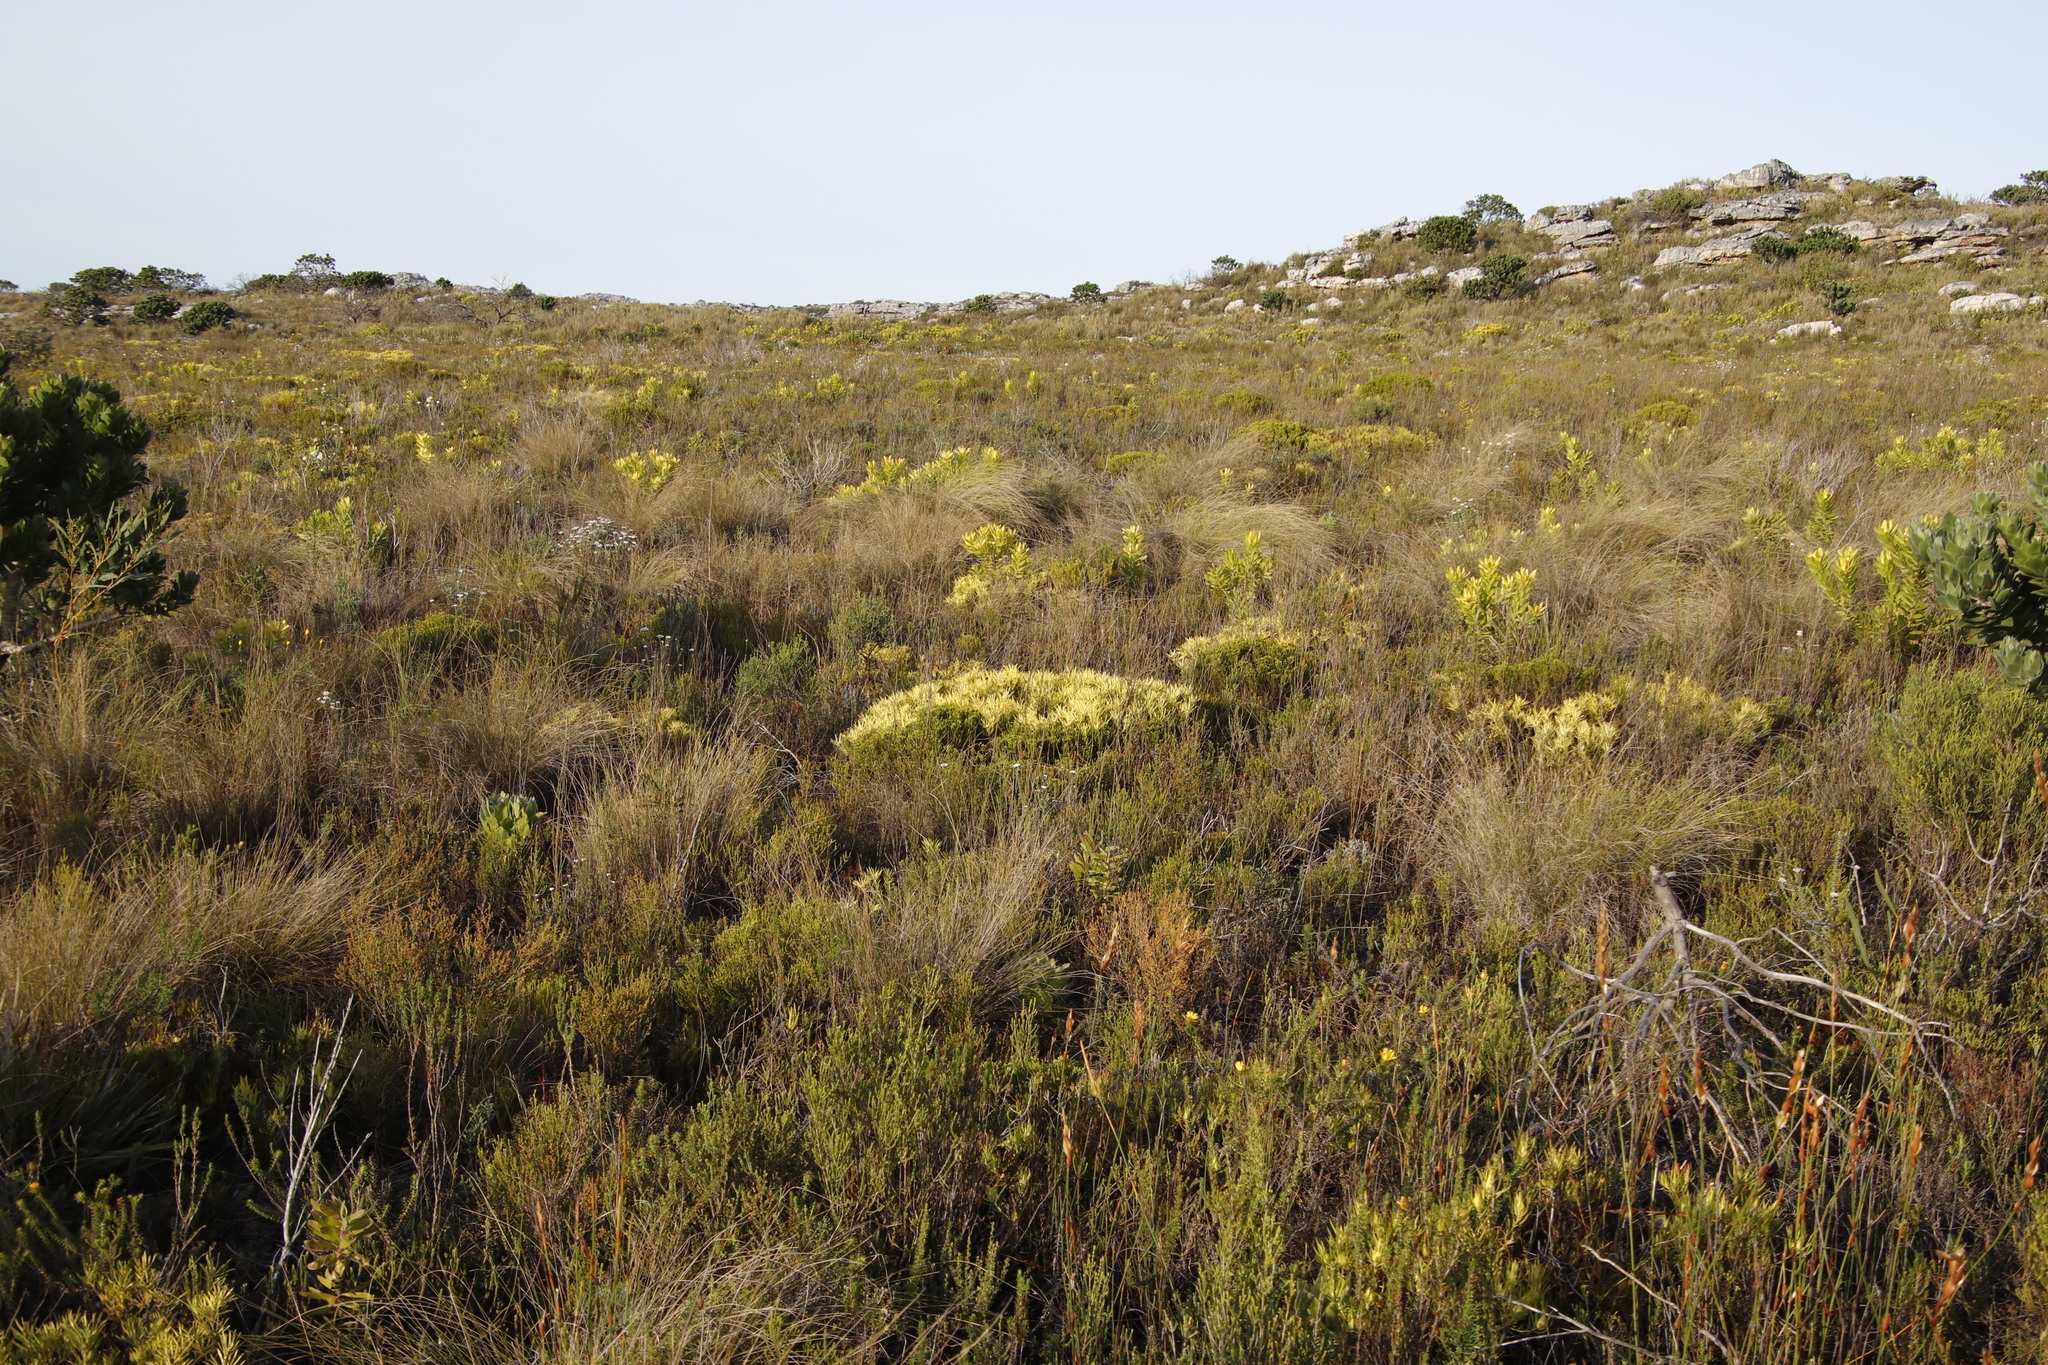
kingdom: Plantae
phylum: Tracheophyta
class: Magnoliopsida
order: Proteales
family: Proteaceae
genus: Leucadendron
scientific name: Leucadendron salignum
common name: Common sunshine conebush
